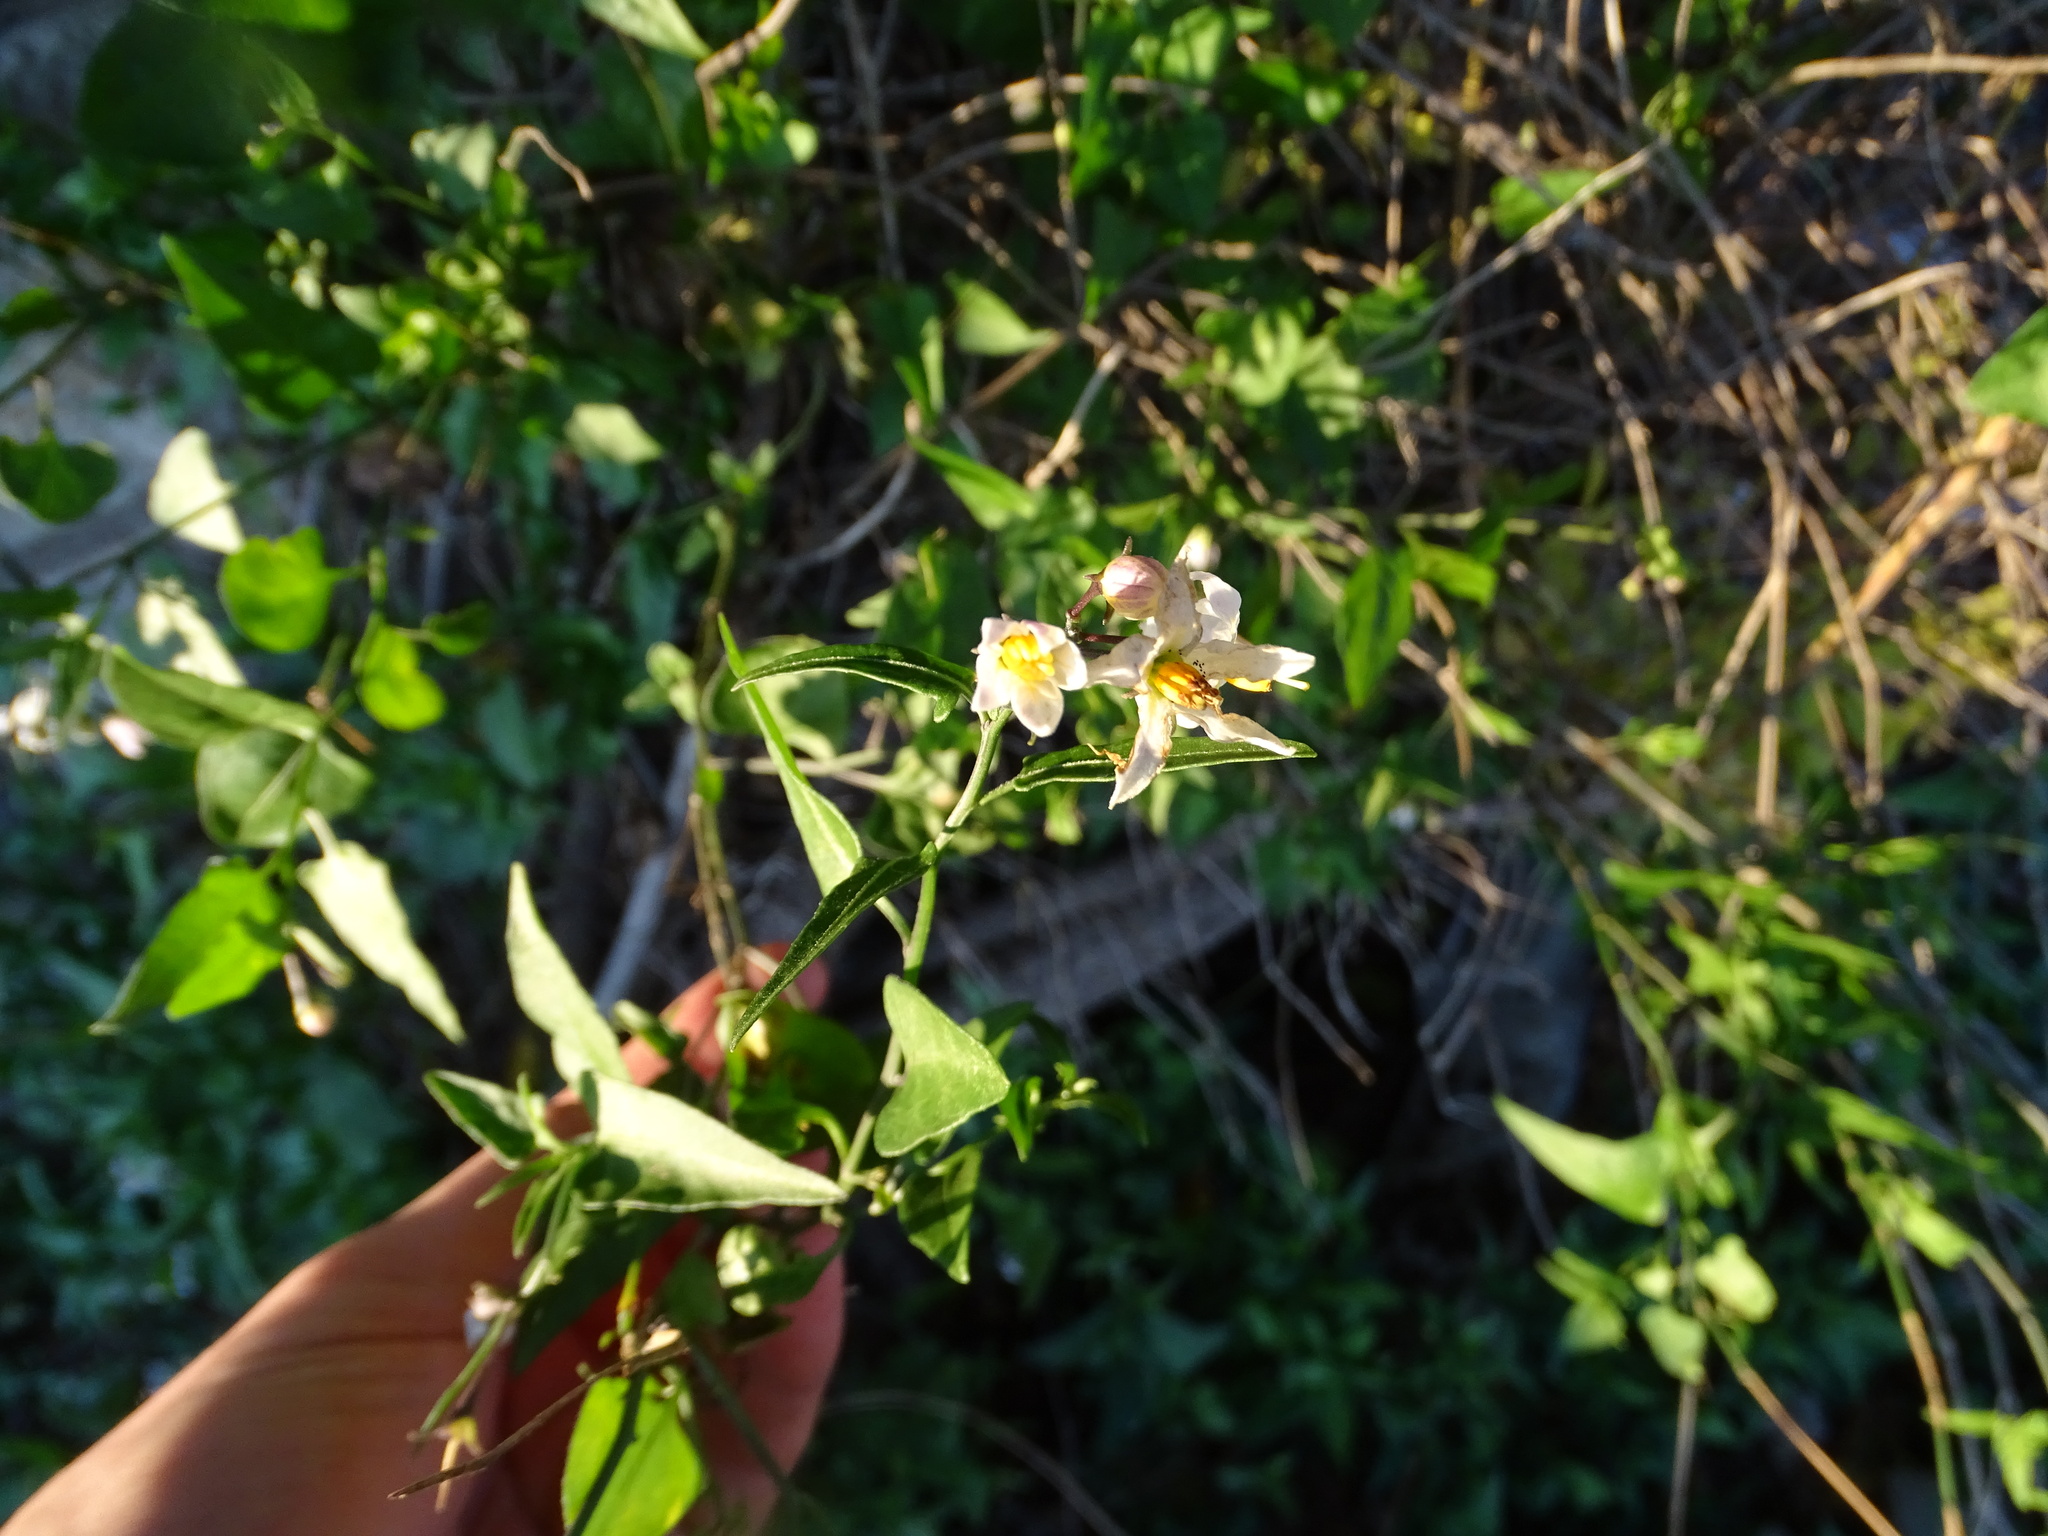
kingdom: Plantae
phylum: Tracheophyta
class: Magnoliopsida
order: Solanales
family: Solanaceae
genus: Solanum
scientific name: Solanum triquetrum
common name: Texas nightshade
